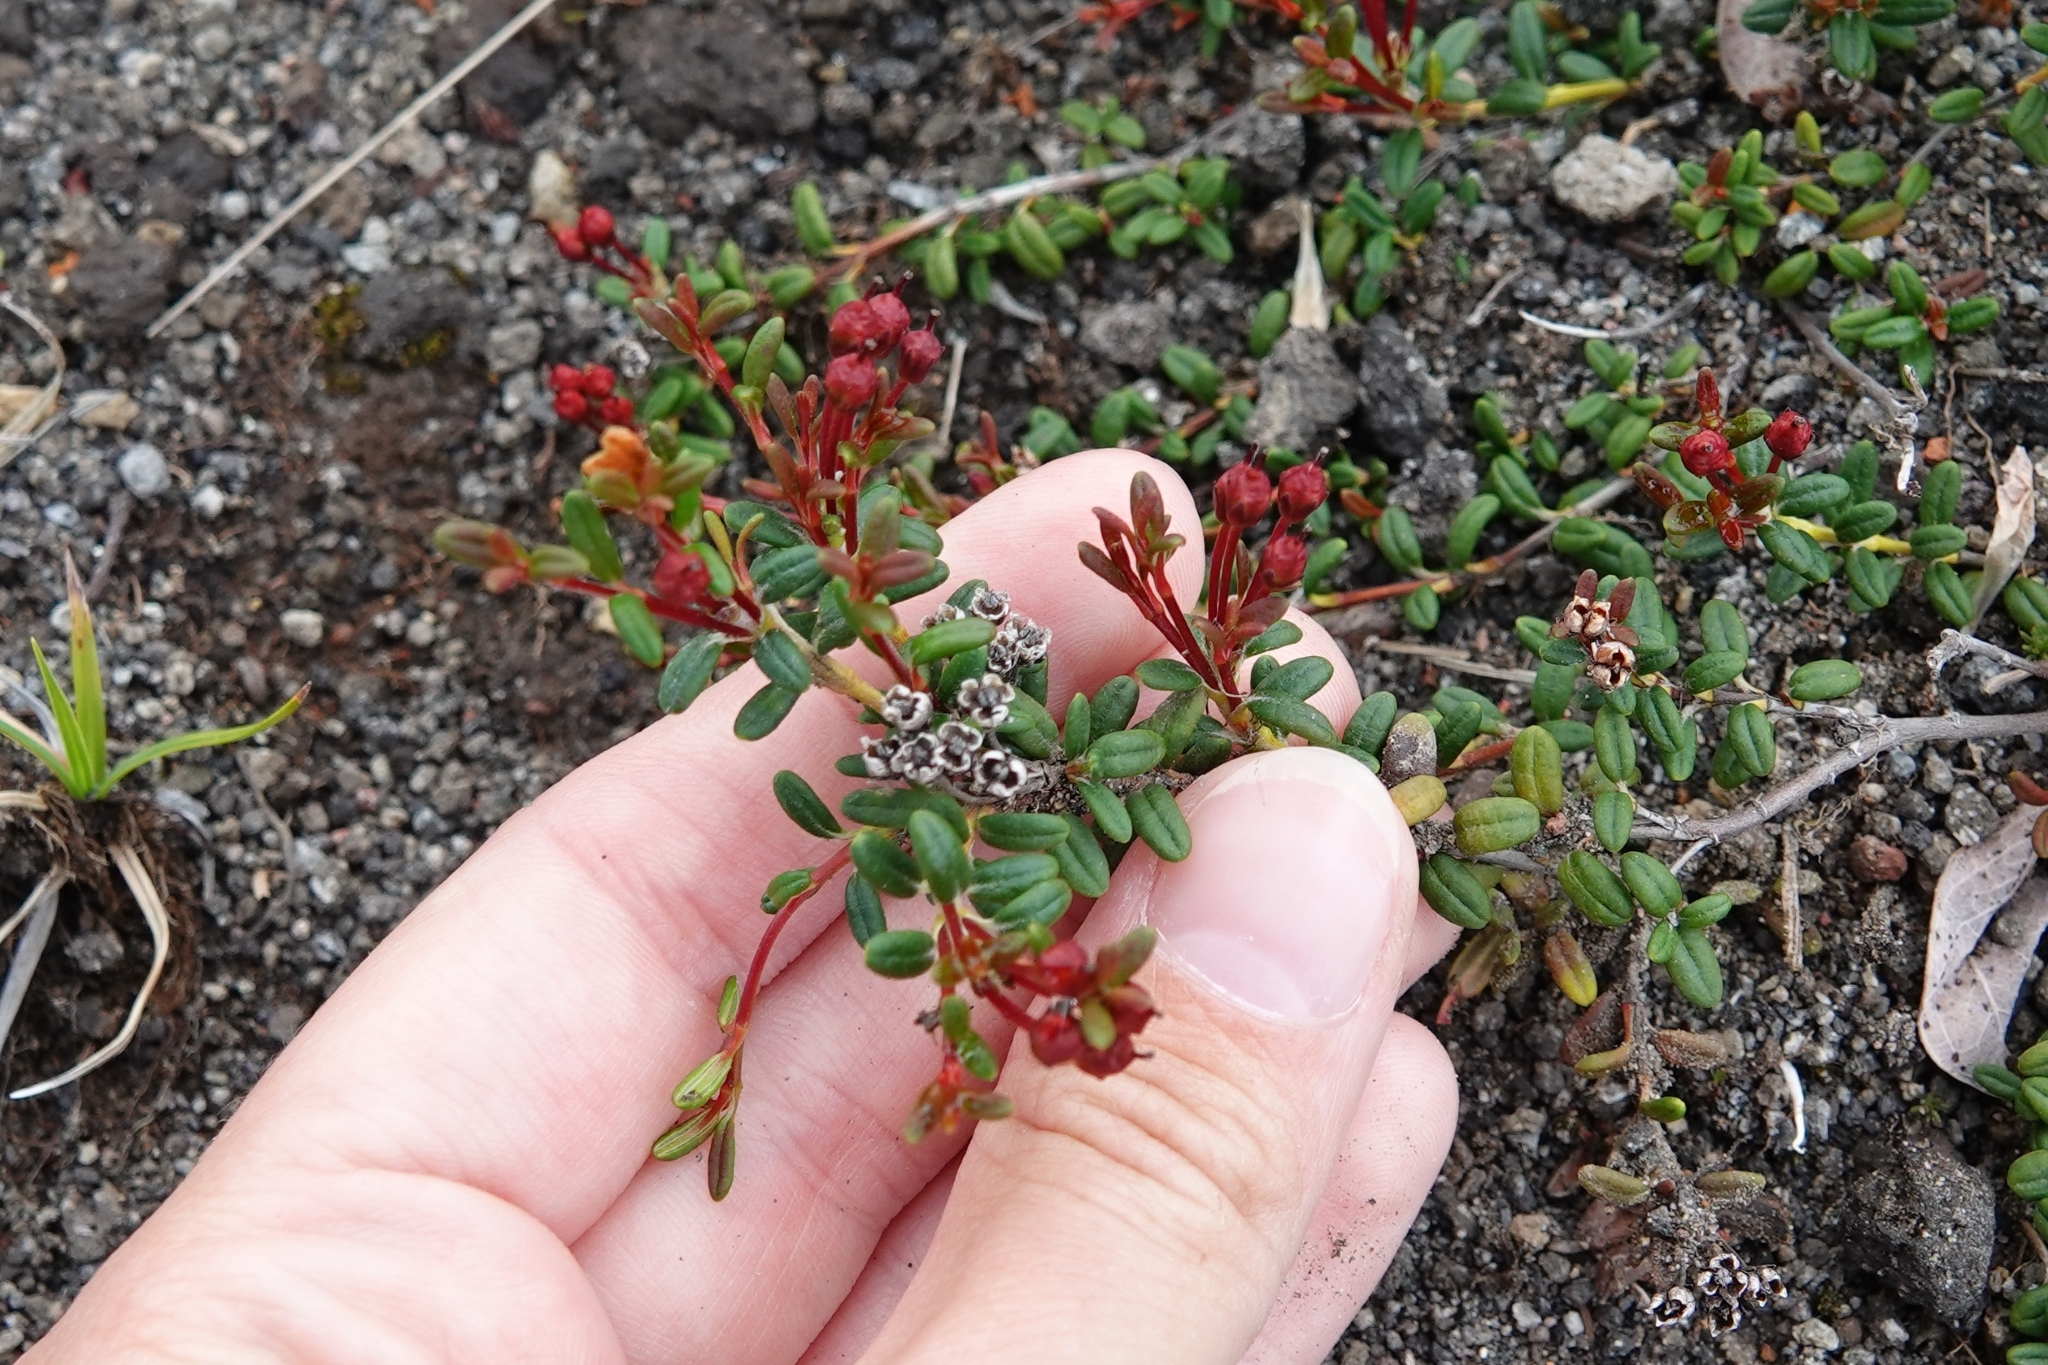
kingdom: Plantae
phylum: Tracheophyta
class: Magnoliopsida
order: Ericales
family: Ericaceae
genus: Kalmia
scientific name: Kalmia procumbens
